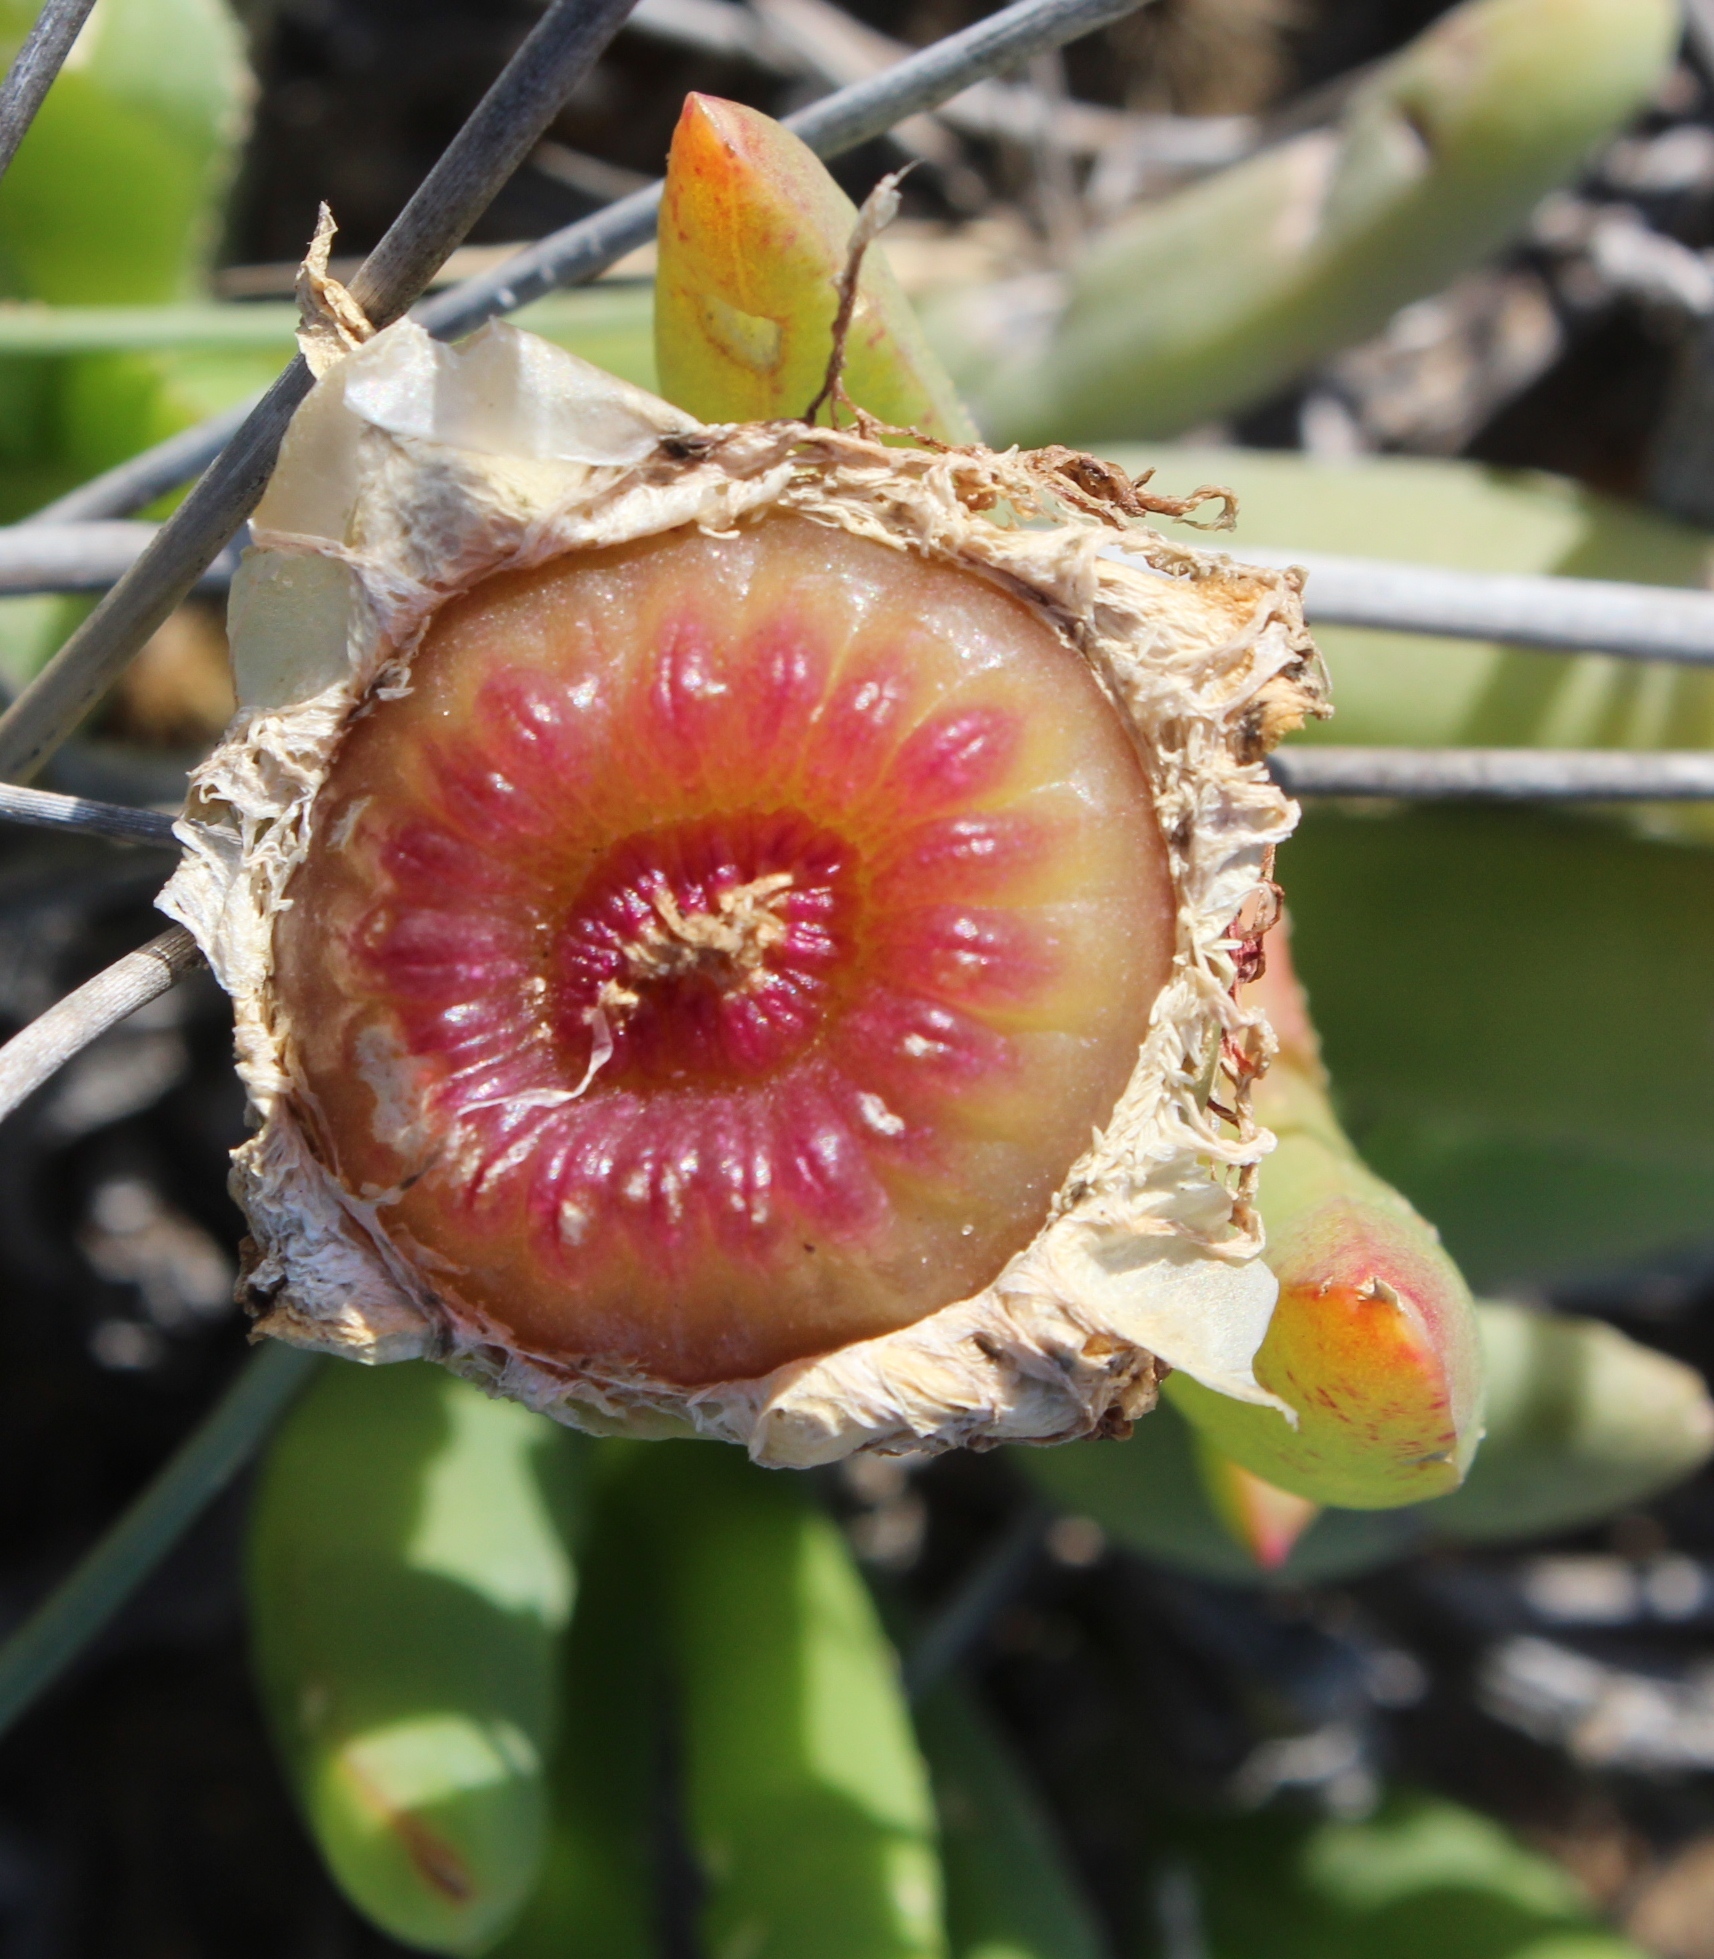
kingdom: Plantae
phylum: Tracheophyta
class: Magnoliopsida
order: Caryophyllales
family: Aizoaceae
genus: Jordaaniella
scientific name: Jordaaniella spongiosa
